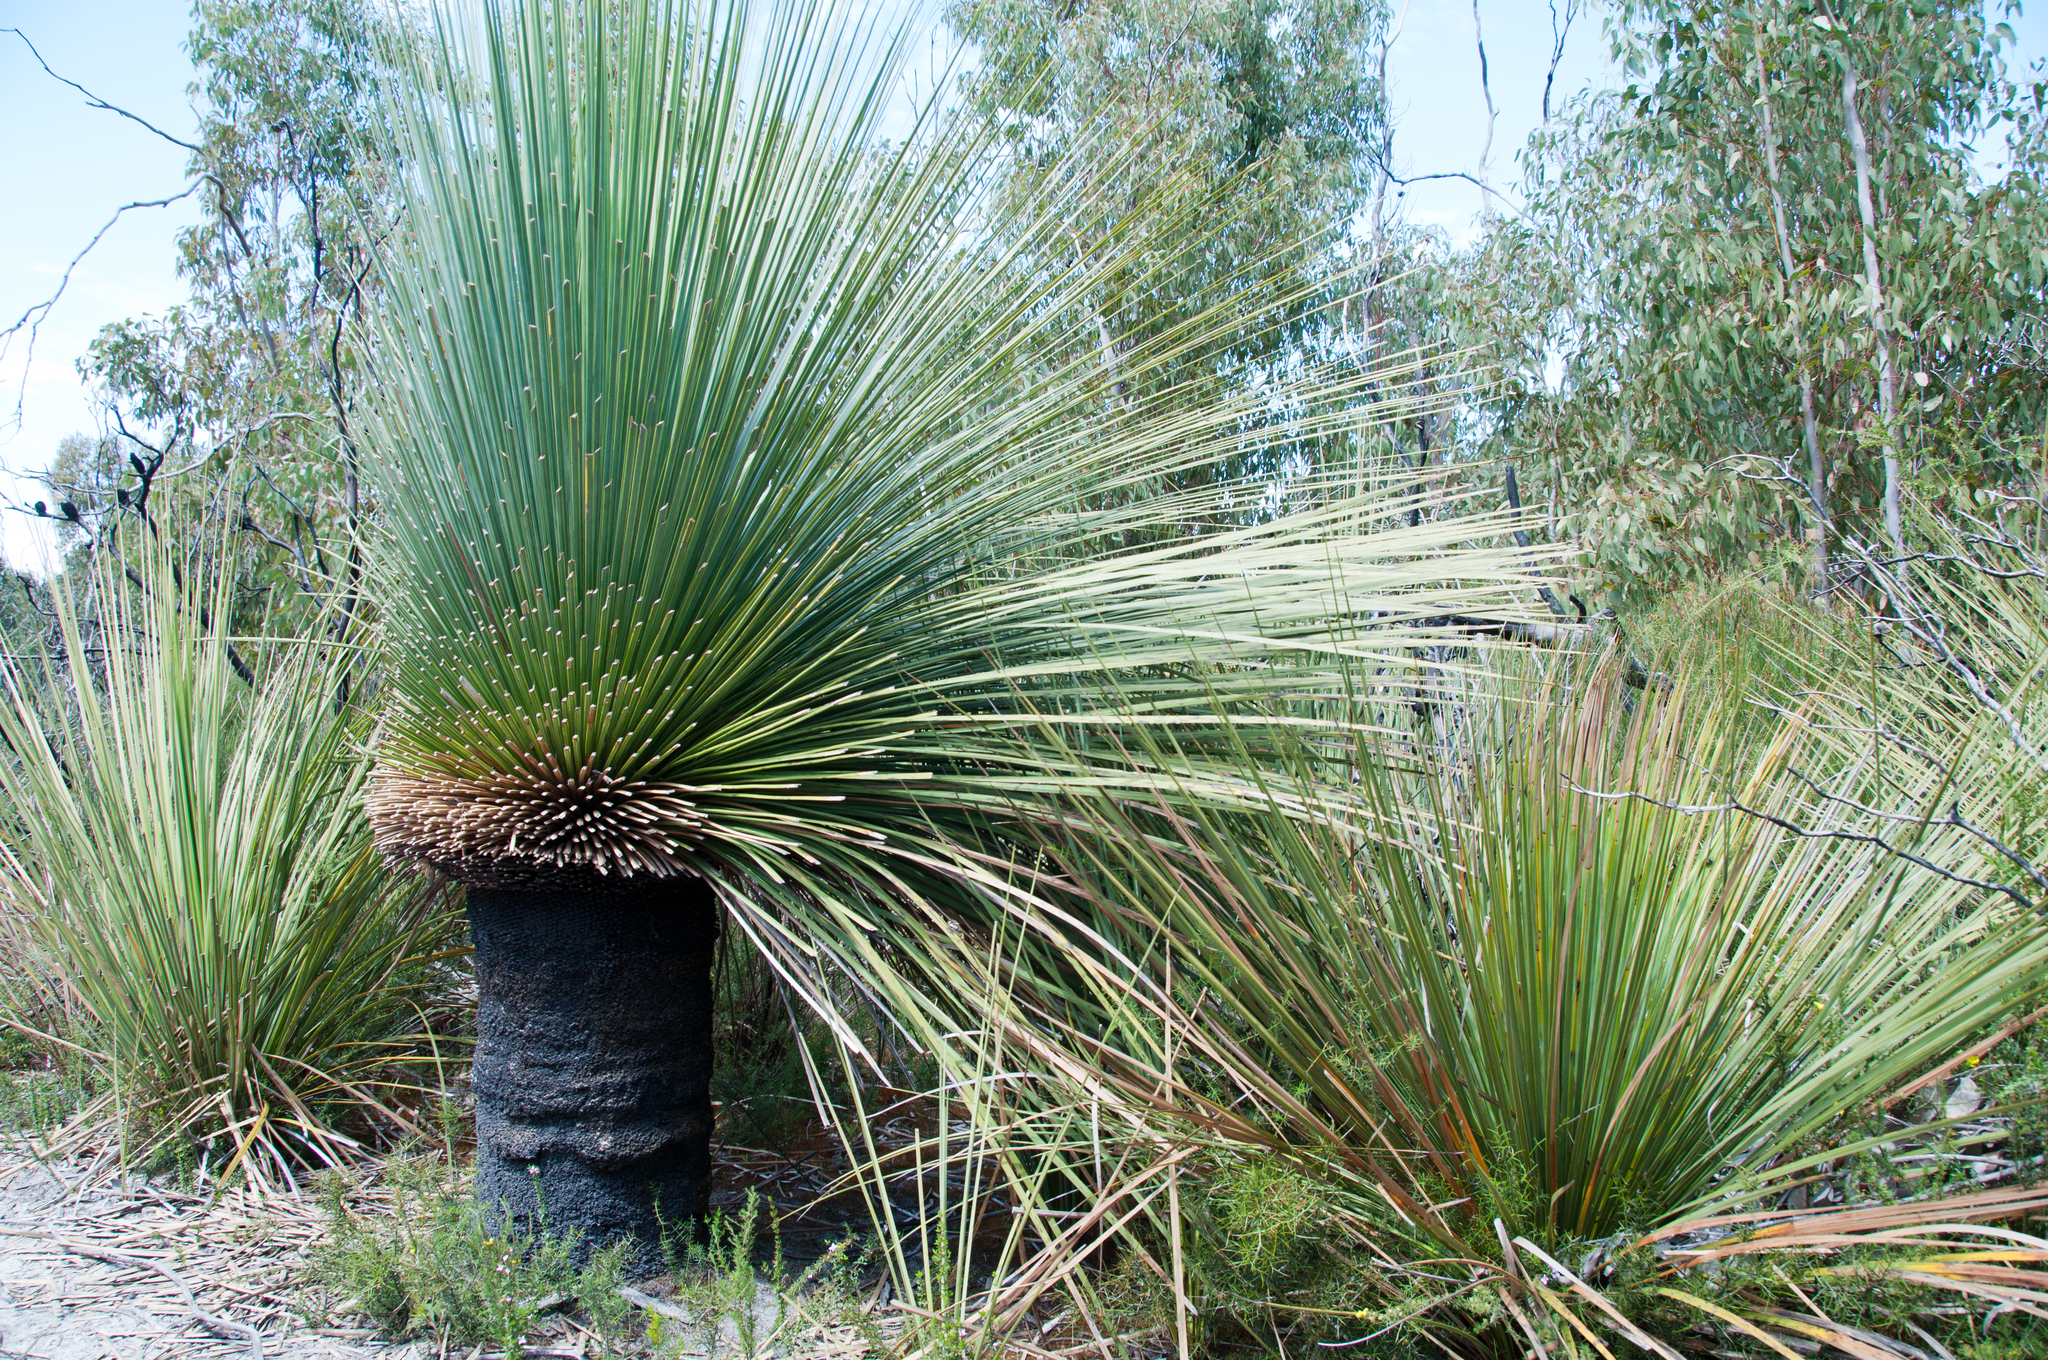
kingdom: Plantae
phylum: Tracheophyta
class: Liliopsida
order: Asparagales
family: Asphodelaceae
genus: Xanthorrhoea
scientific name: Xanthorrhoea semiplana
